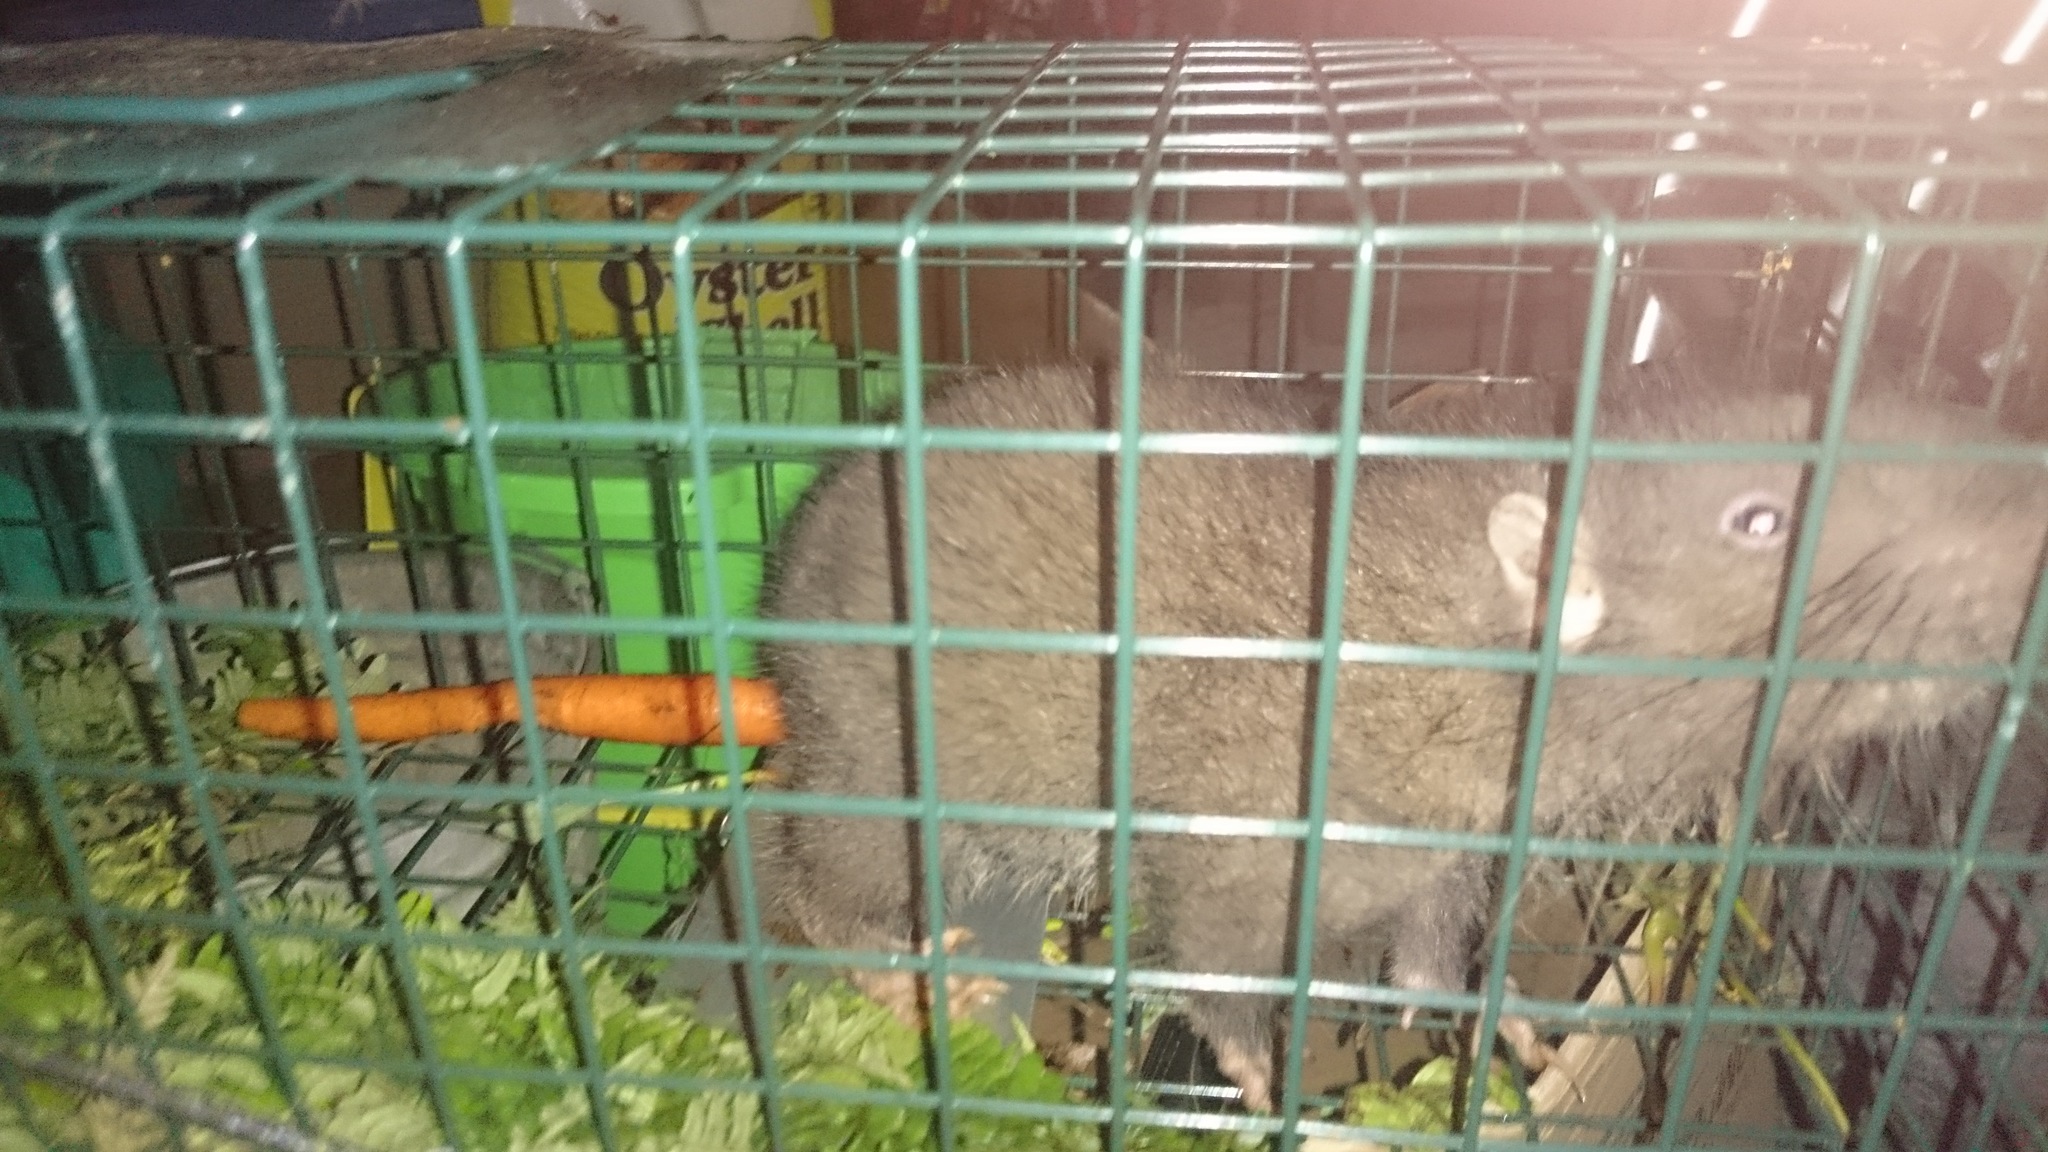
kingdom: Animalia
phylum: Chordata
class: Mammalia
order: Rodentia
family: Aplodontiidae
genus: Aplodontia
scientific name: Aplodontia rufa
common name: Mountain beaver
